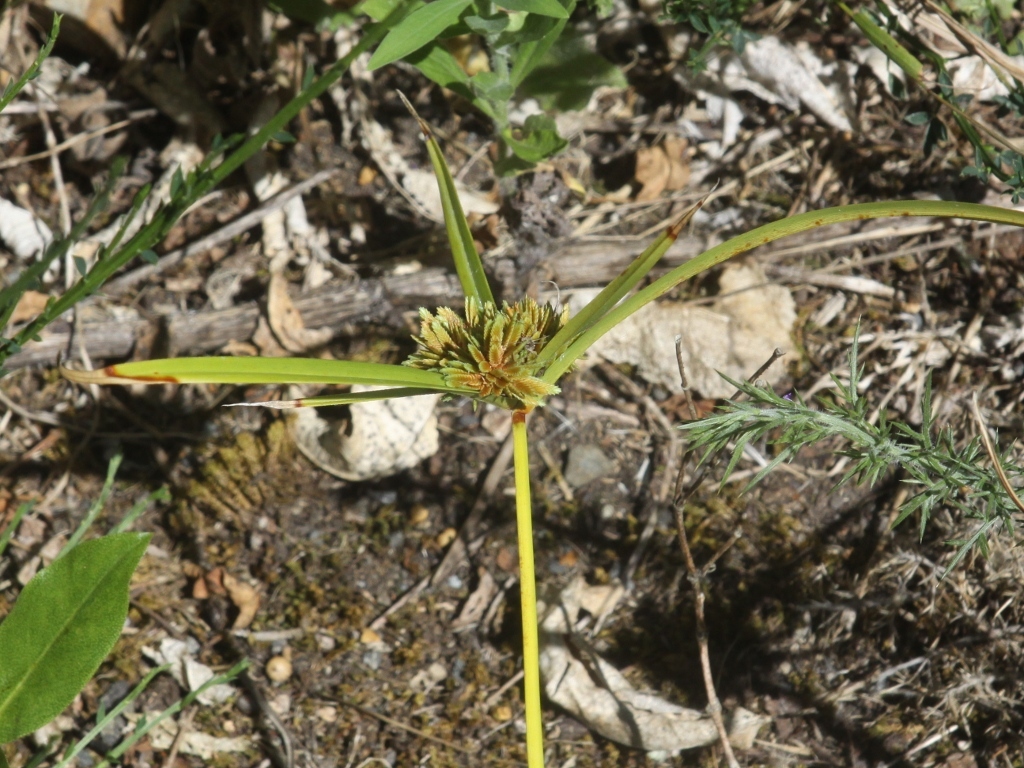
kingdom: Plantae
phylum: Tracheophyta
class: Liliopsida
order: Poales
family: Cyperaceae
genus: Cyperus
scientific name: Cyperus eragrostis
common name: Tall flatsedge
